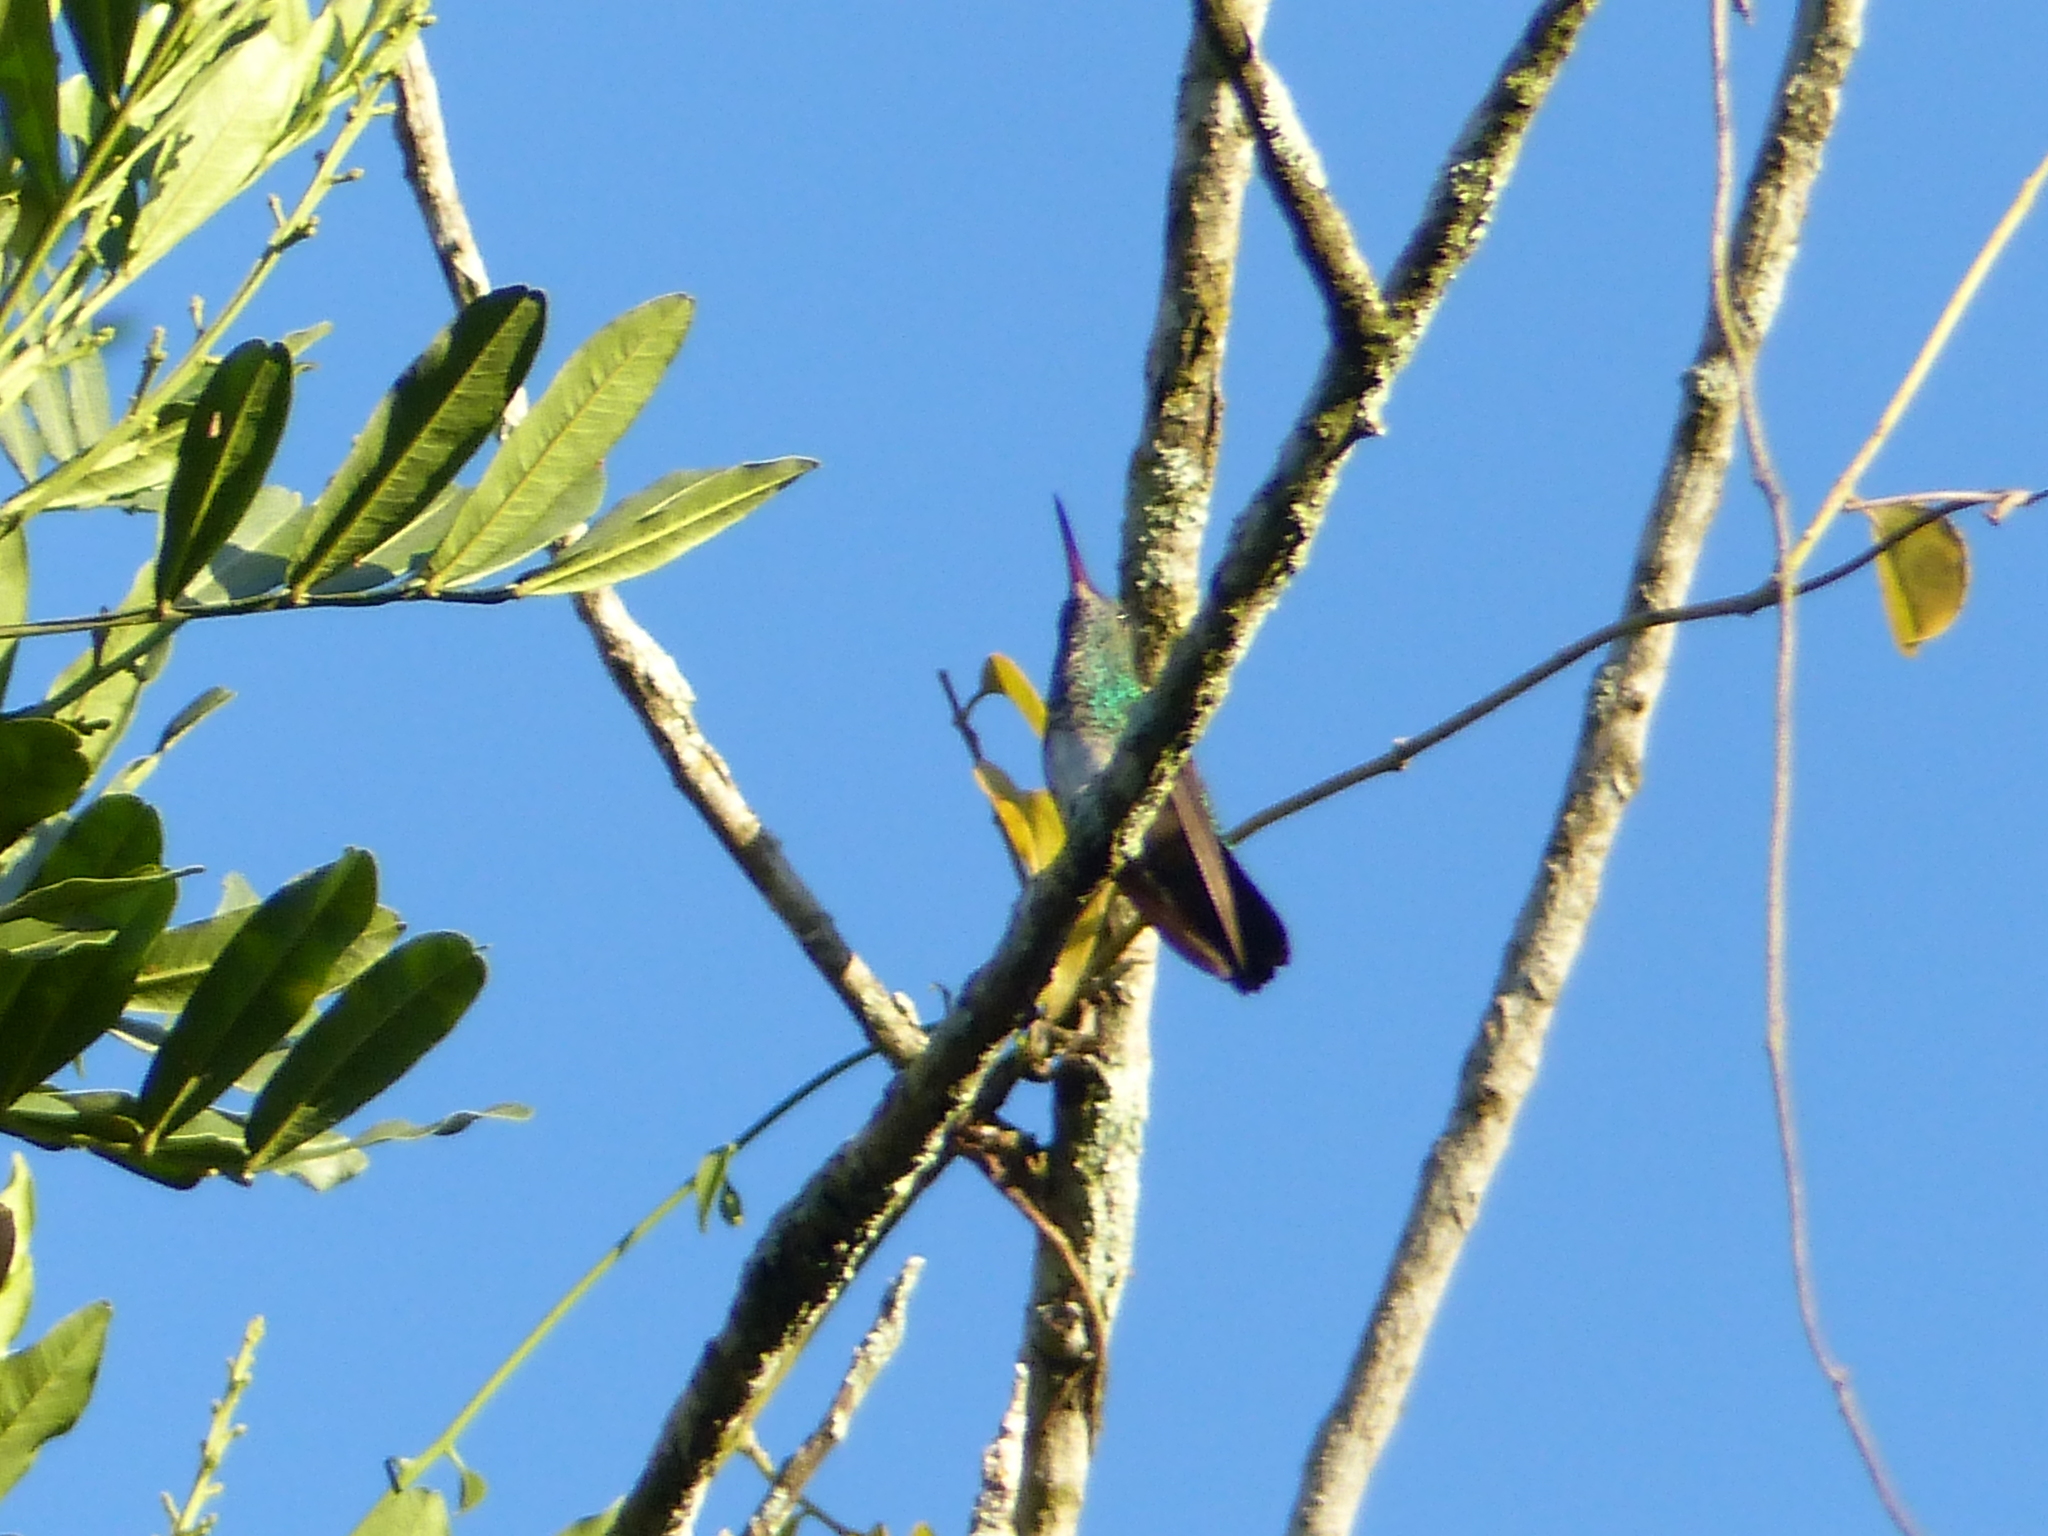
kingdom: Animalia
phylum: Chordata
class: Aves
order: Apodiformes
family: Trochilidae
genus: Chionomesa
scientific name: Chionomesa fimbriata
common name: Glittering-throated emerald
